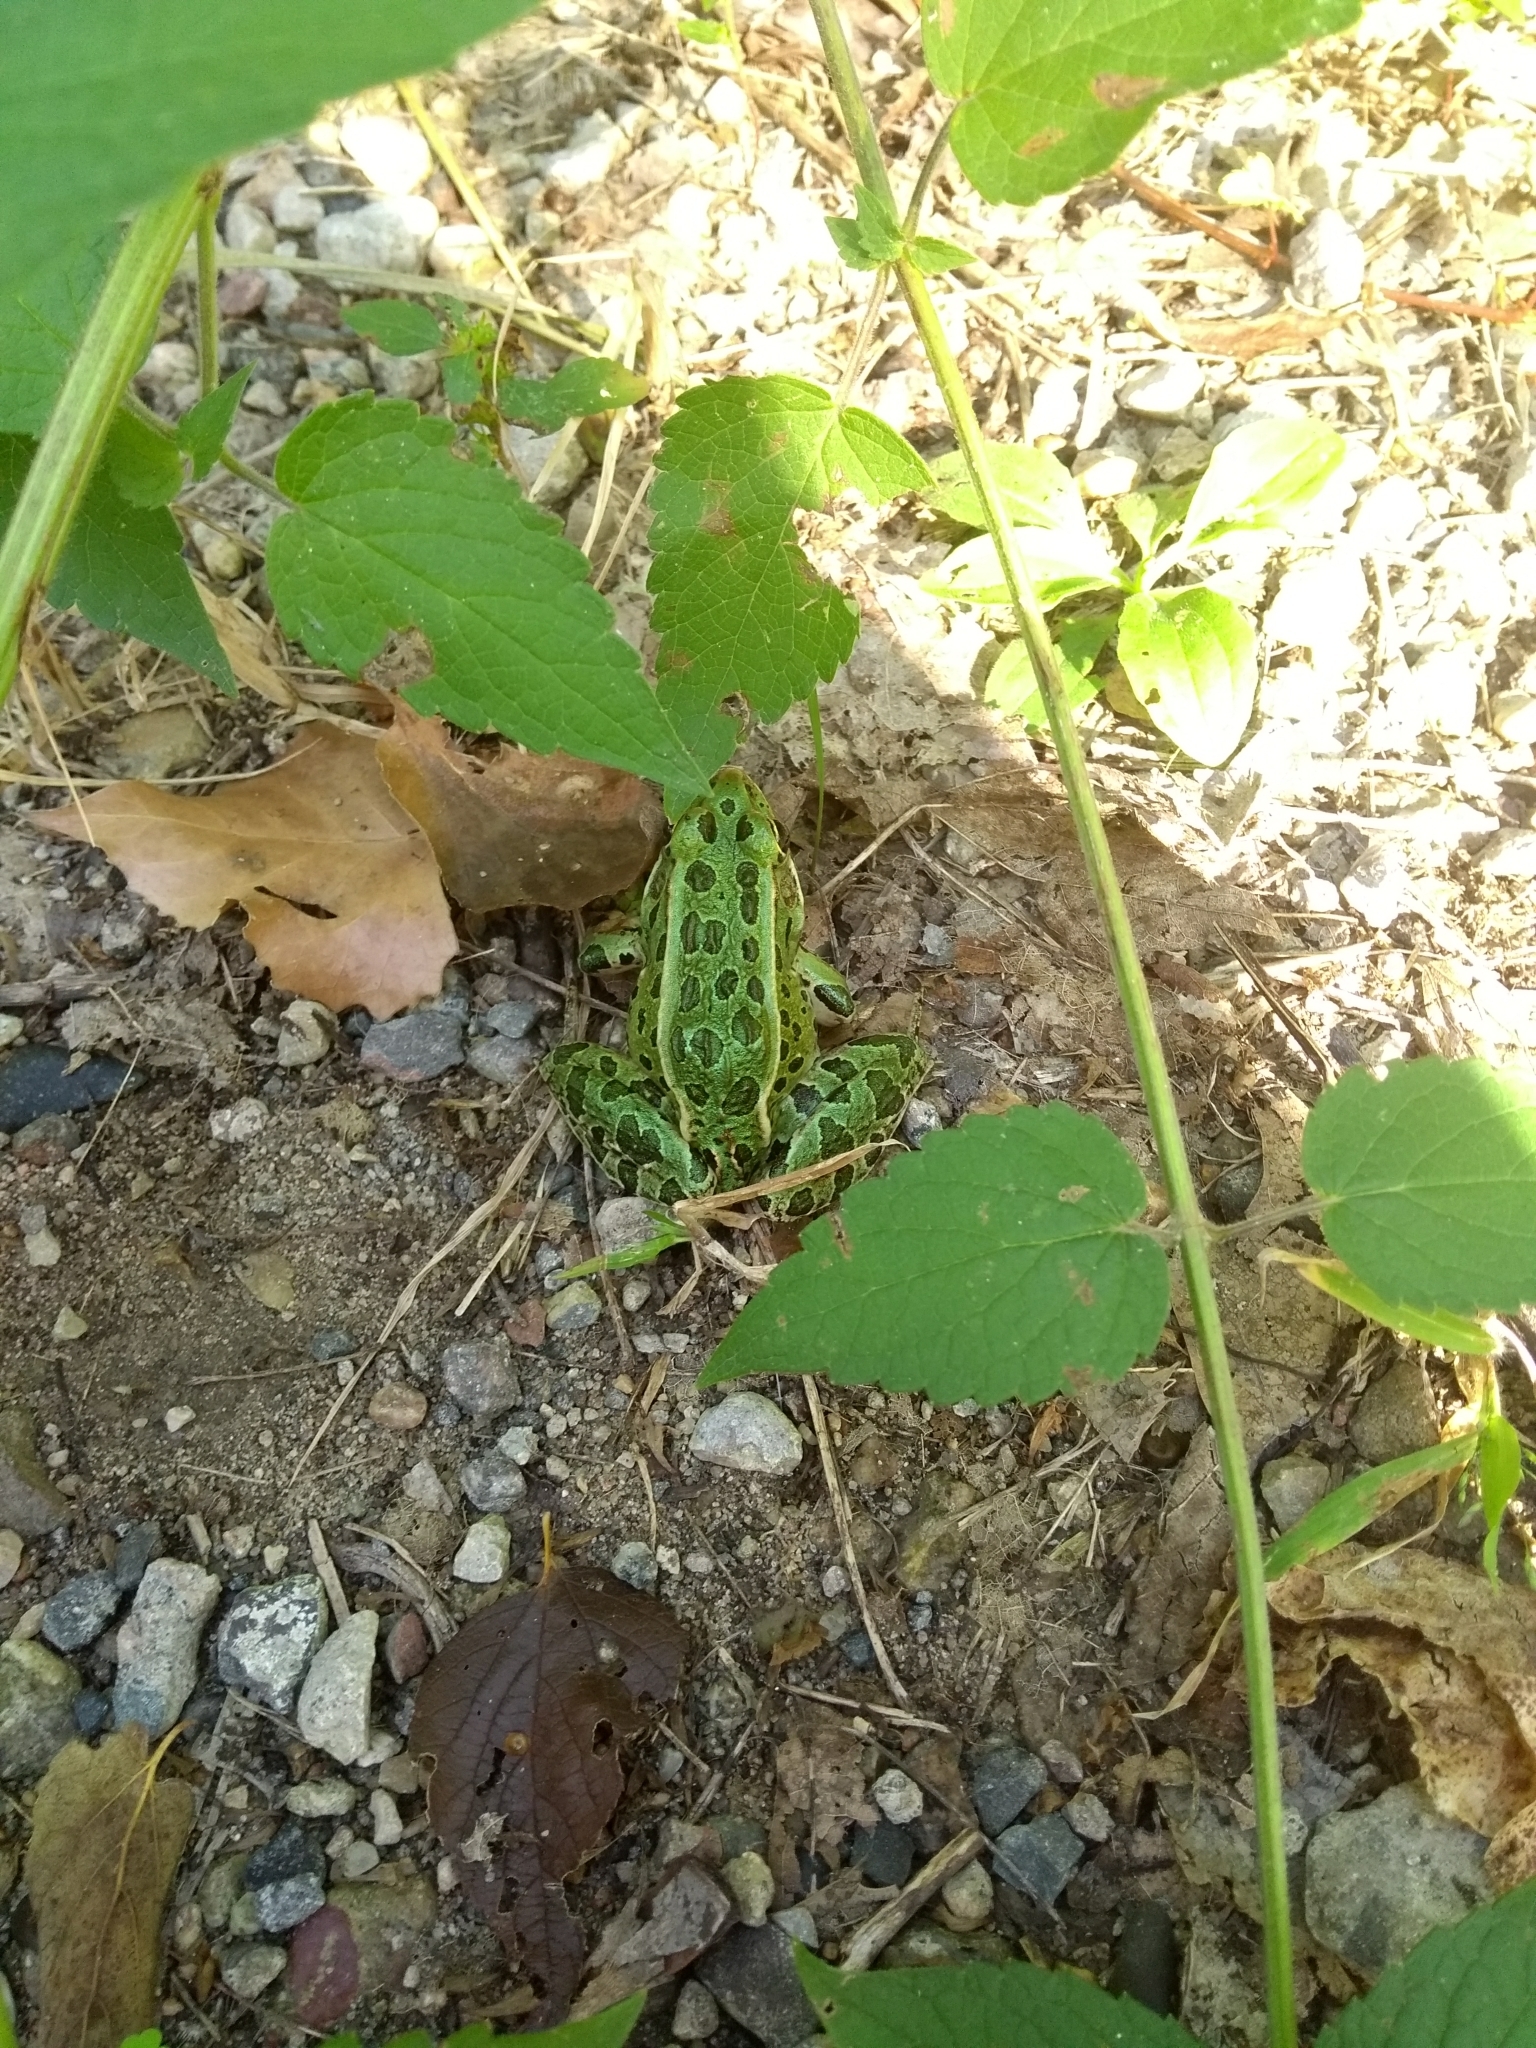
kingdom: Animalia
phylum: Chordata
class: Amphibia
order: Anura
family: Ranidae
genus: Lithobates
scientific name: Lithobates pipiens
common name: Northern leopard frog
